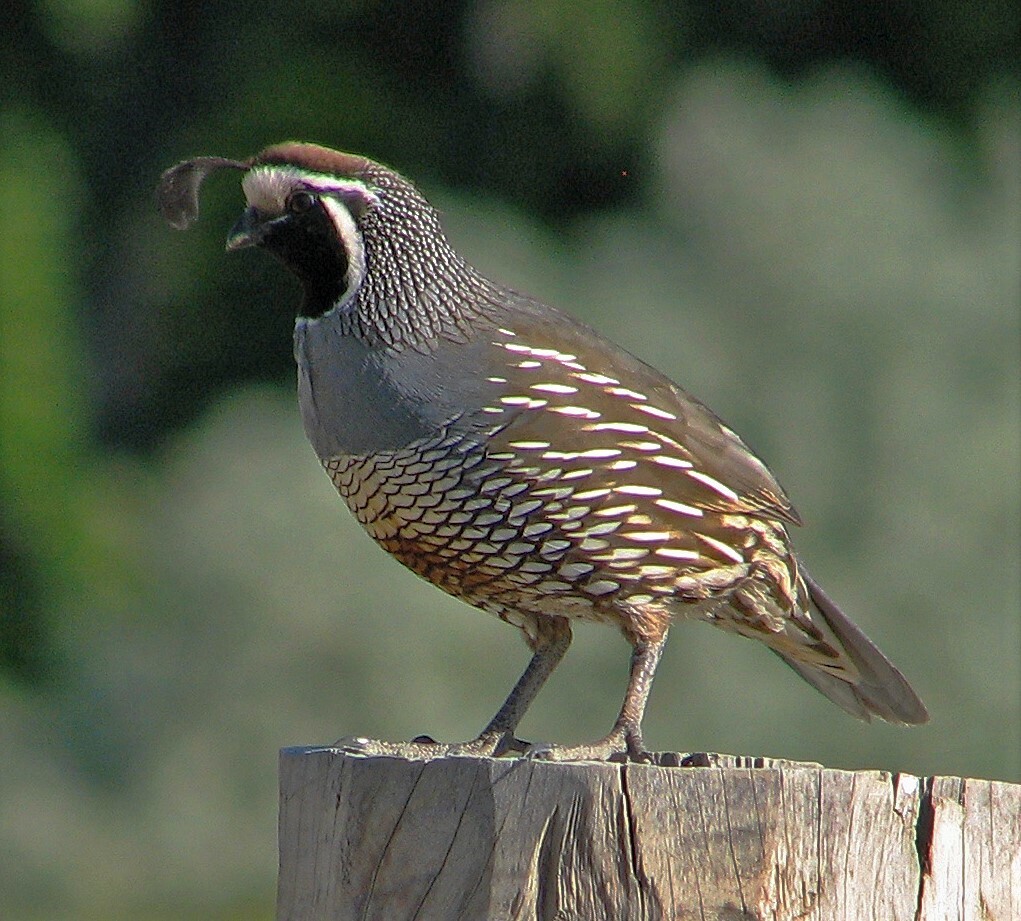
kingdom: Animalia
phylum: Chordata
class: Aves
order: Galliformes
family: Odontophoridae
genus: Callipepla
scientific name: Callipepla californica
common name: California quail
